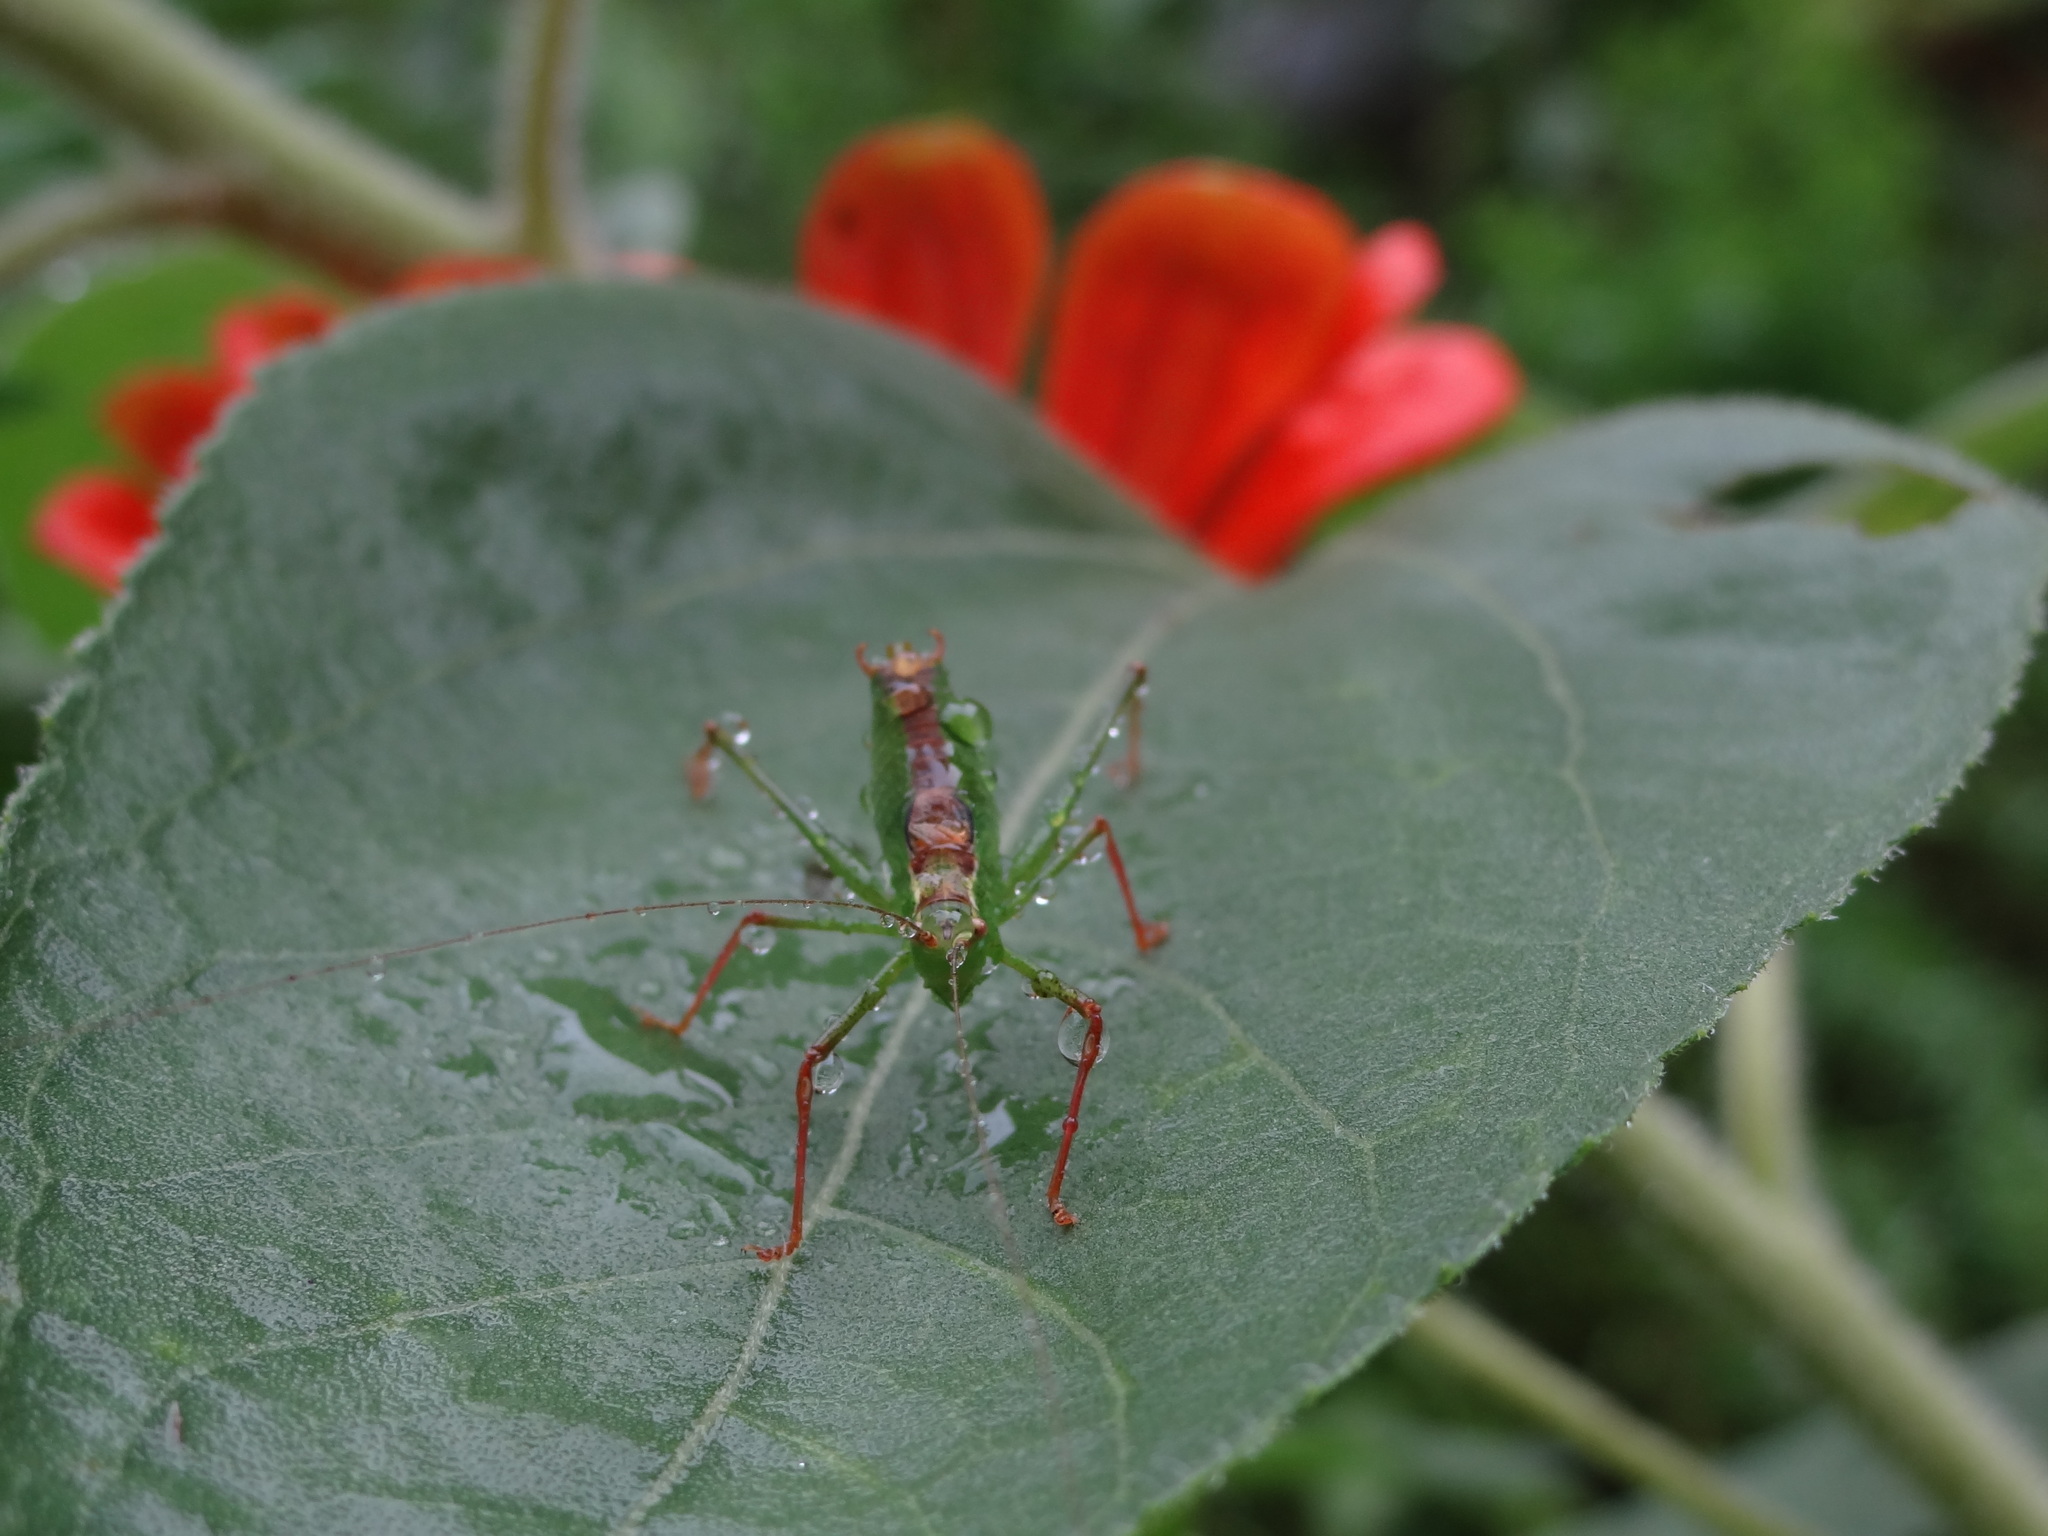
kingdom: Animalia
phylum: Arthropoda
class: Insecta
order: Orthoptera
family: Tettigoniidae
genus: Leptophyes
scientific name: Leptophyes punctatissima
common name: Speckled bush-cricket
